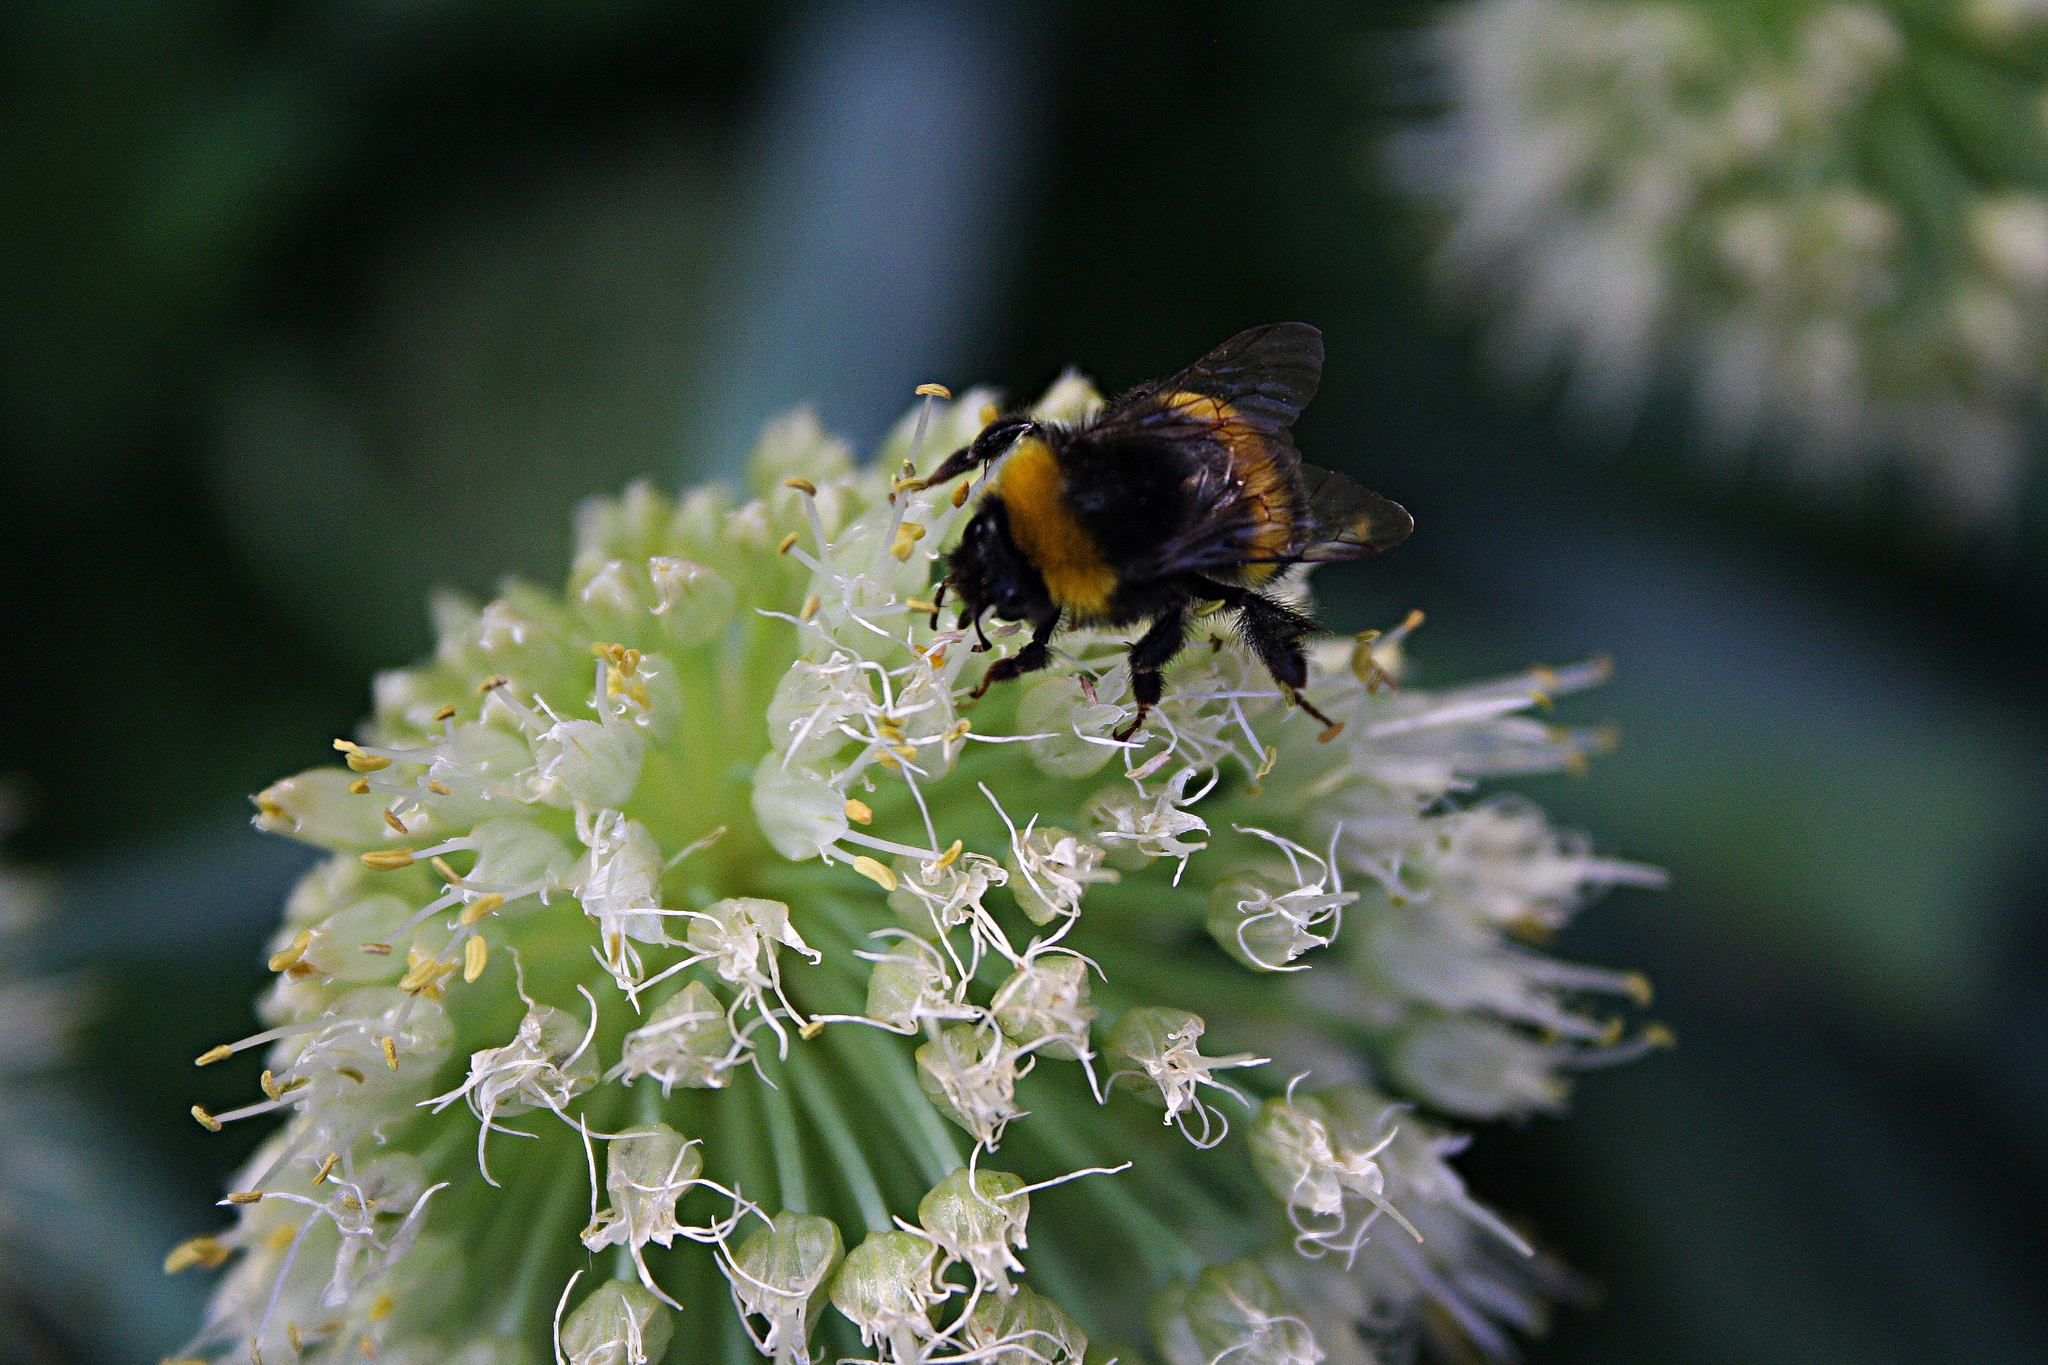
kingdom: Animalia
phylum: Arthropoda
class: Insecta
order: Hymenoptera
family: Apidae
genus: Bombus
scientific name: Bombus
